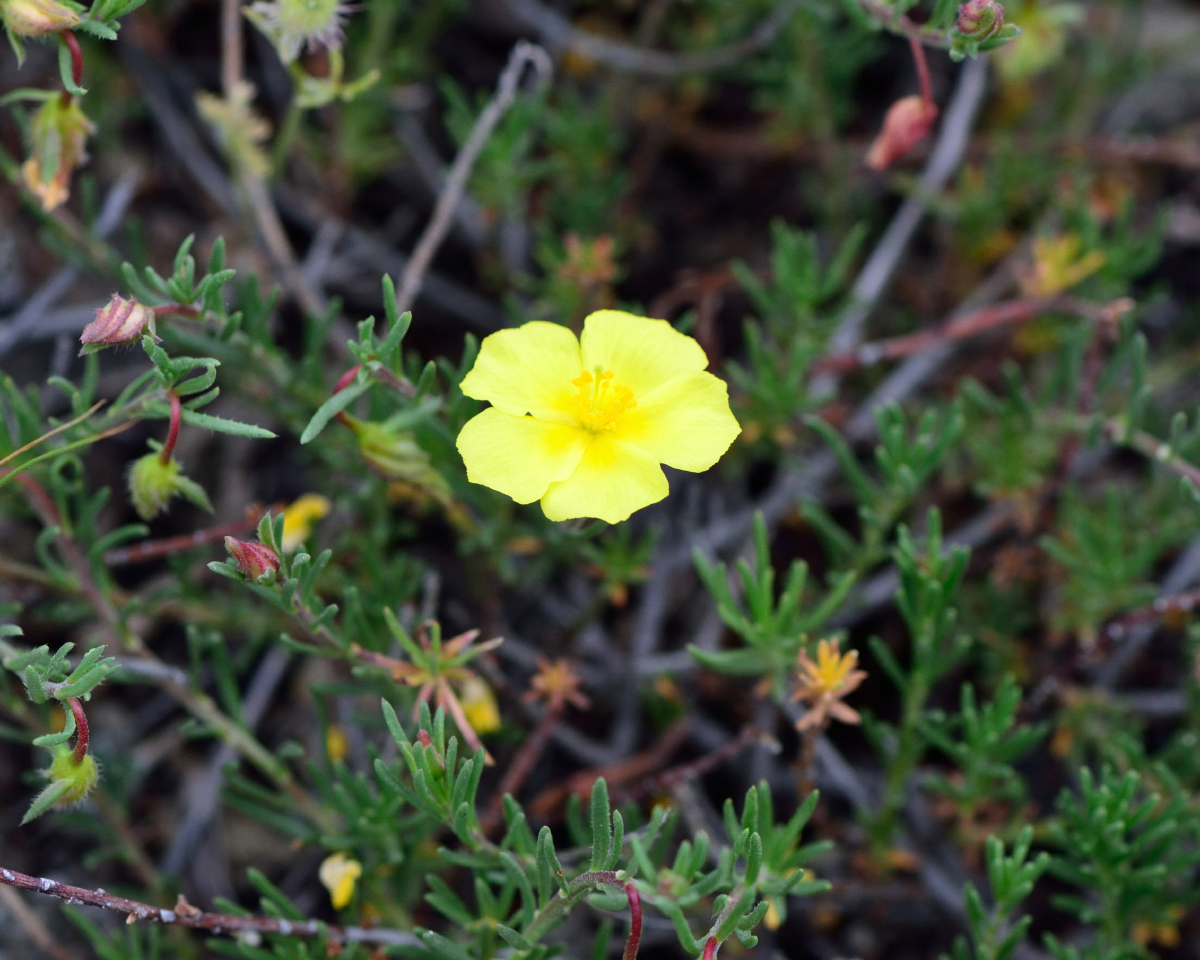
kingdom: Plantae
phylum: Tracheophyta
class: Magnoliopsida
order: Malvales
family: Cistaceae
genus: Fumana
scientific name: Fumana procumbens
